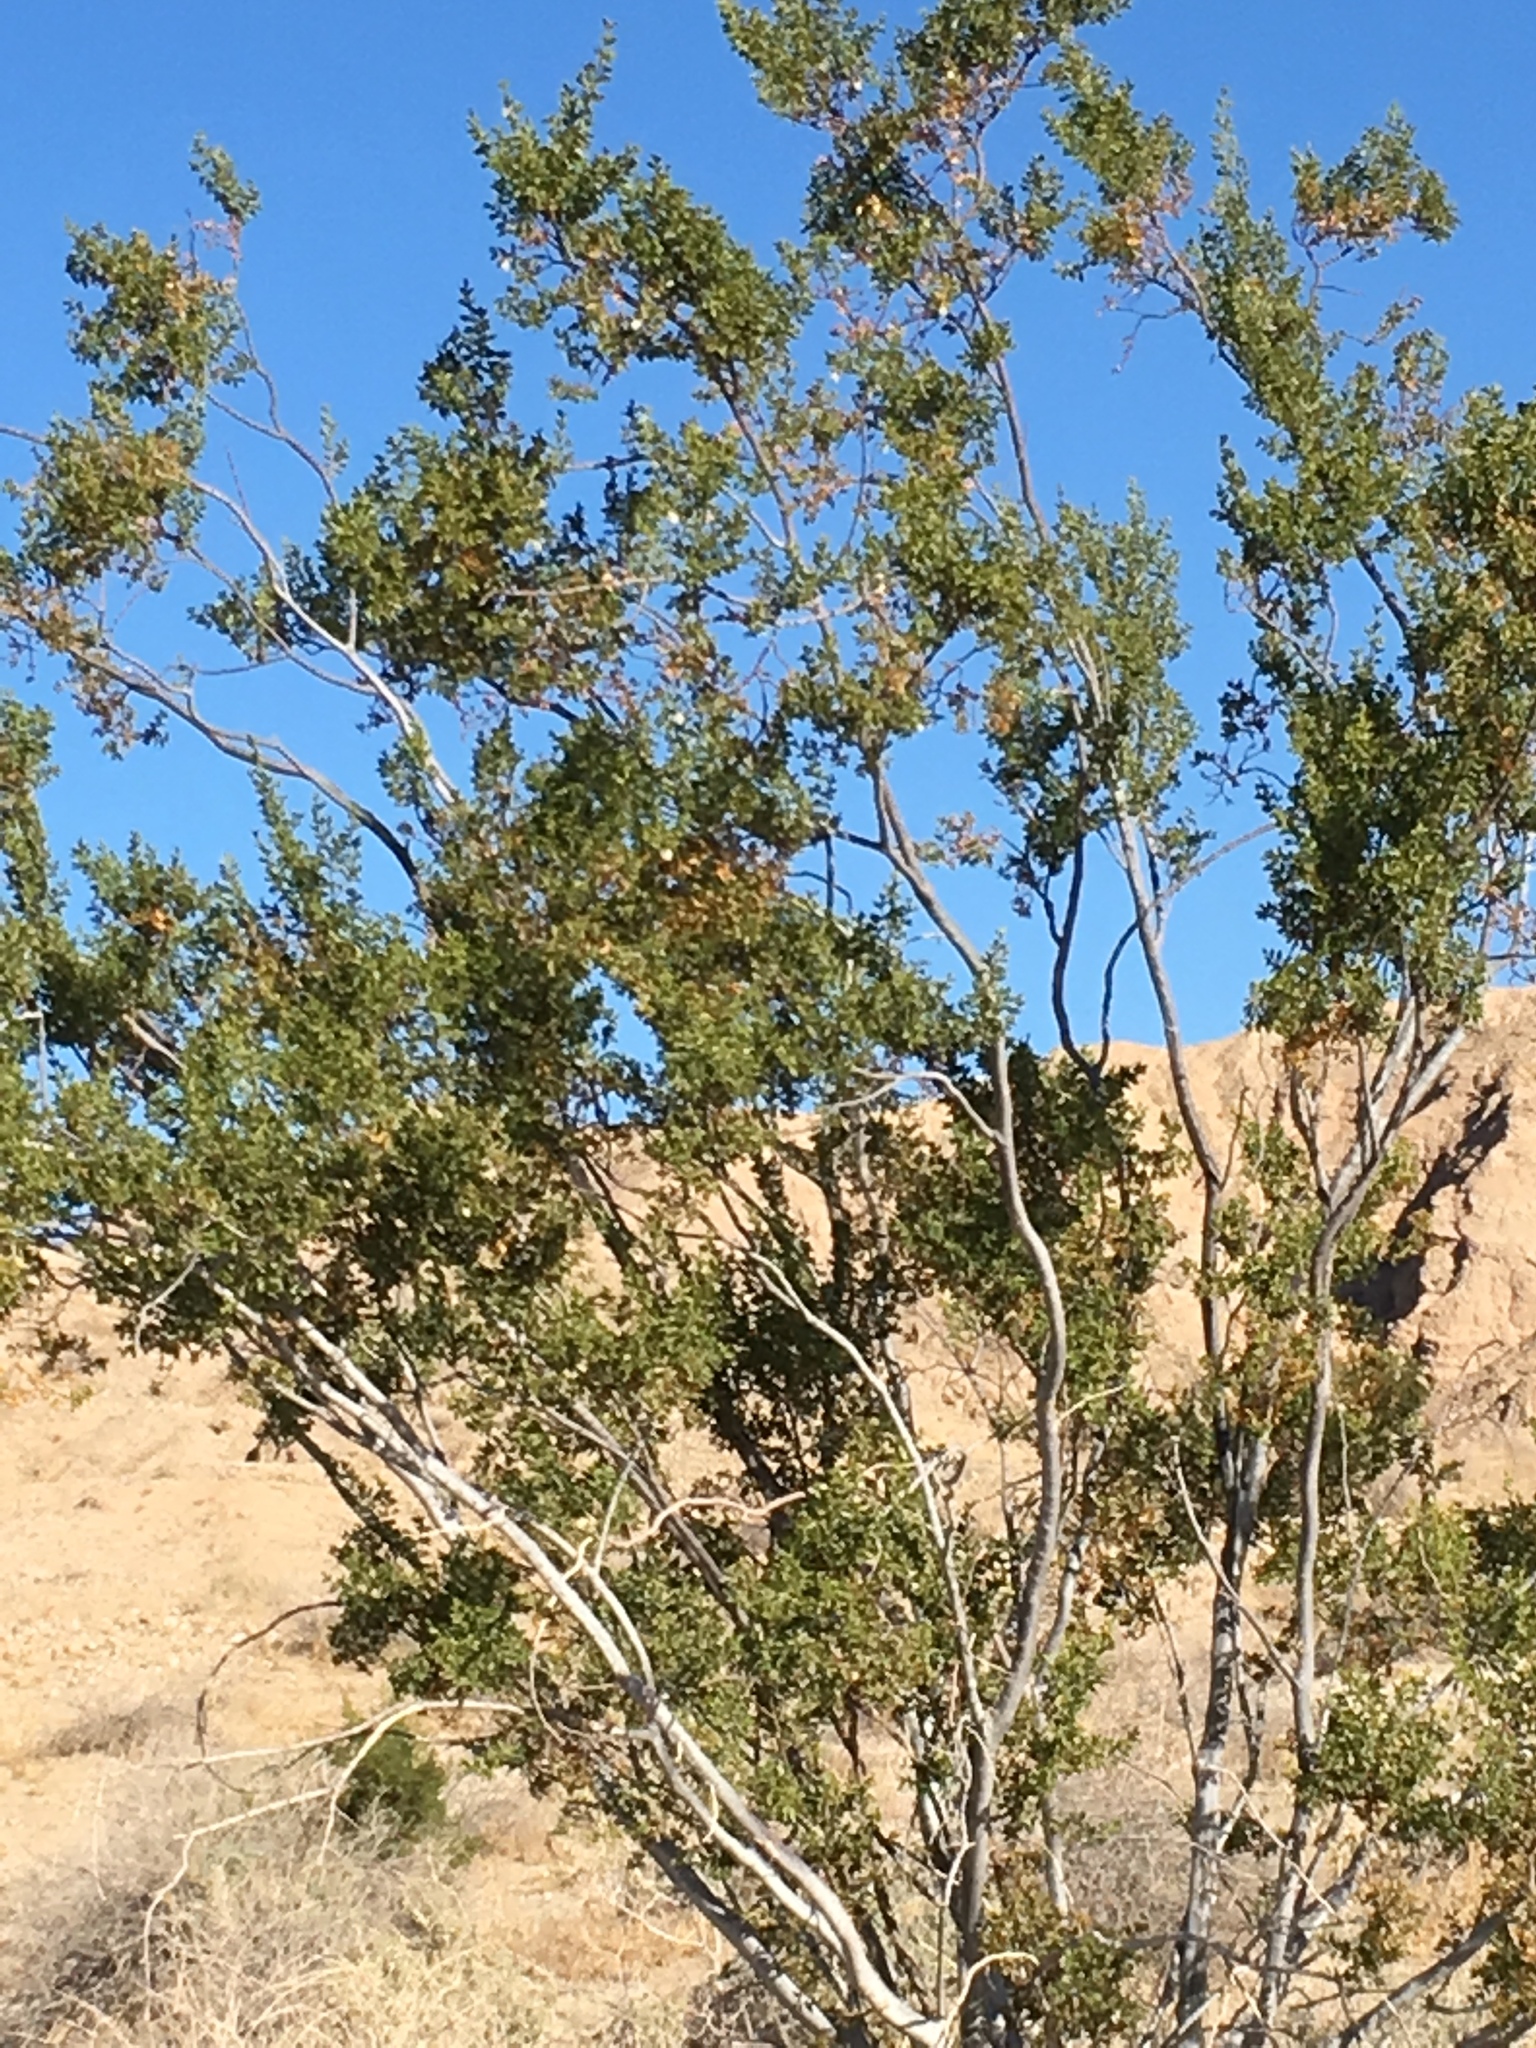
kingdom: Plantae
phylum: Tracheophyta
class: Magnoliopsida
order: Zygophyllales
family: Zygophyllaceae
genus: Larrea
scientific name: Larrea tridentata
